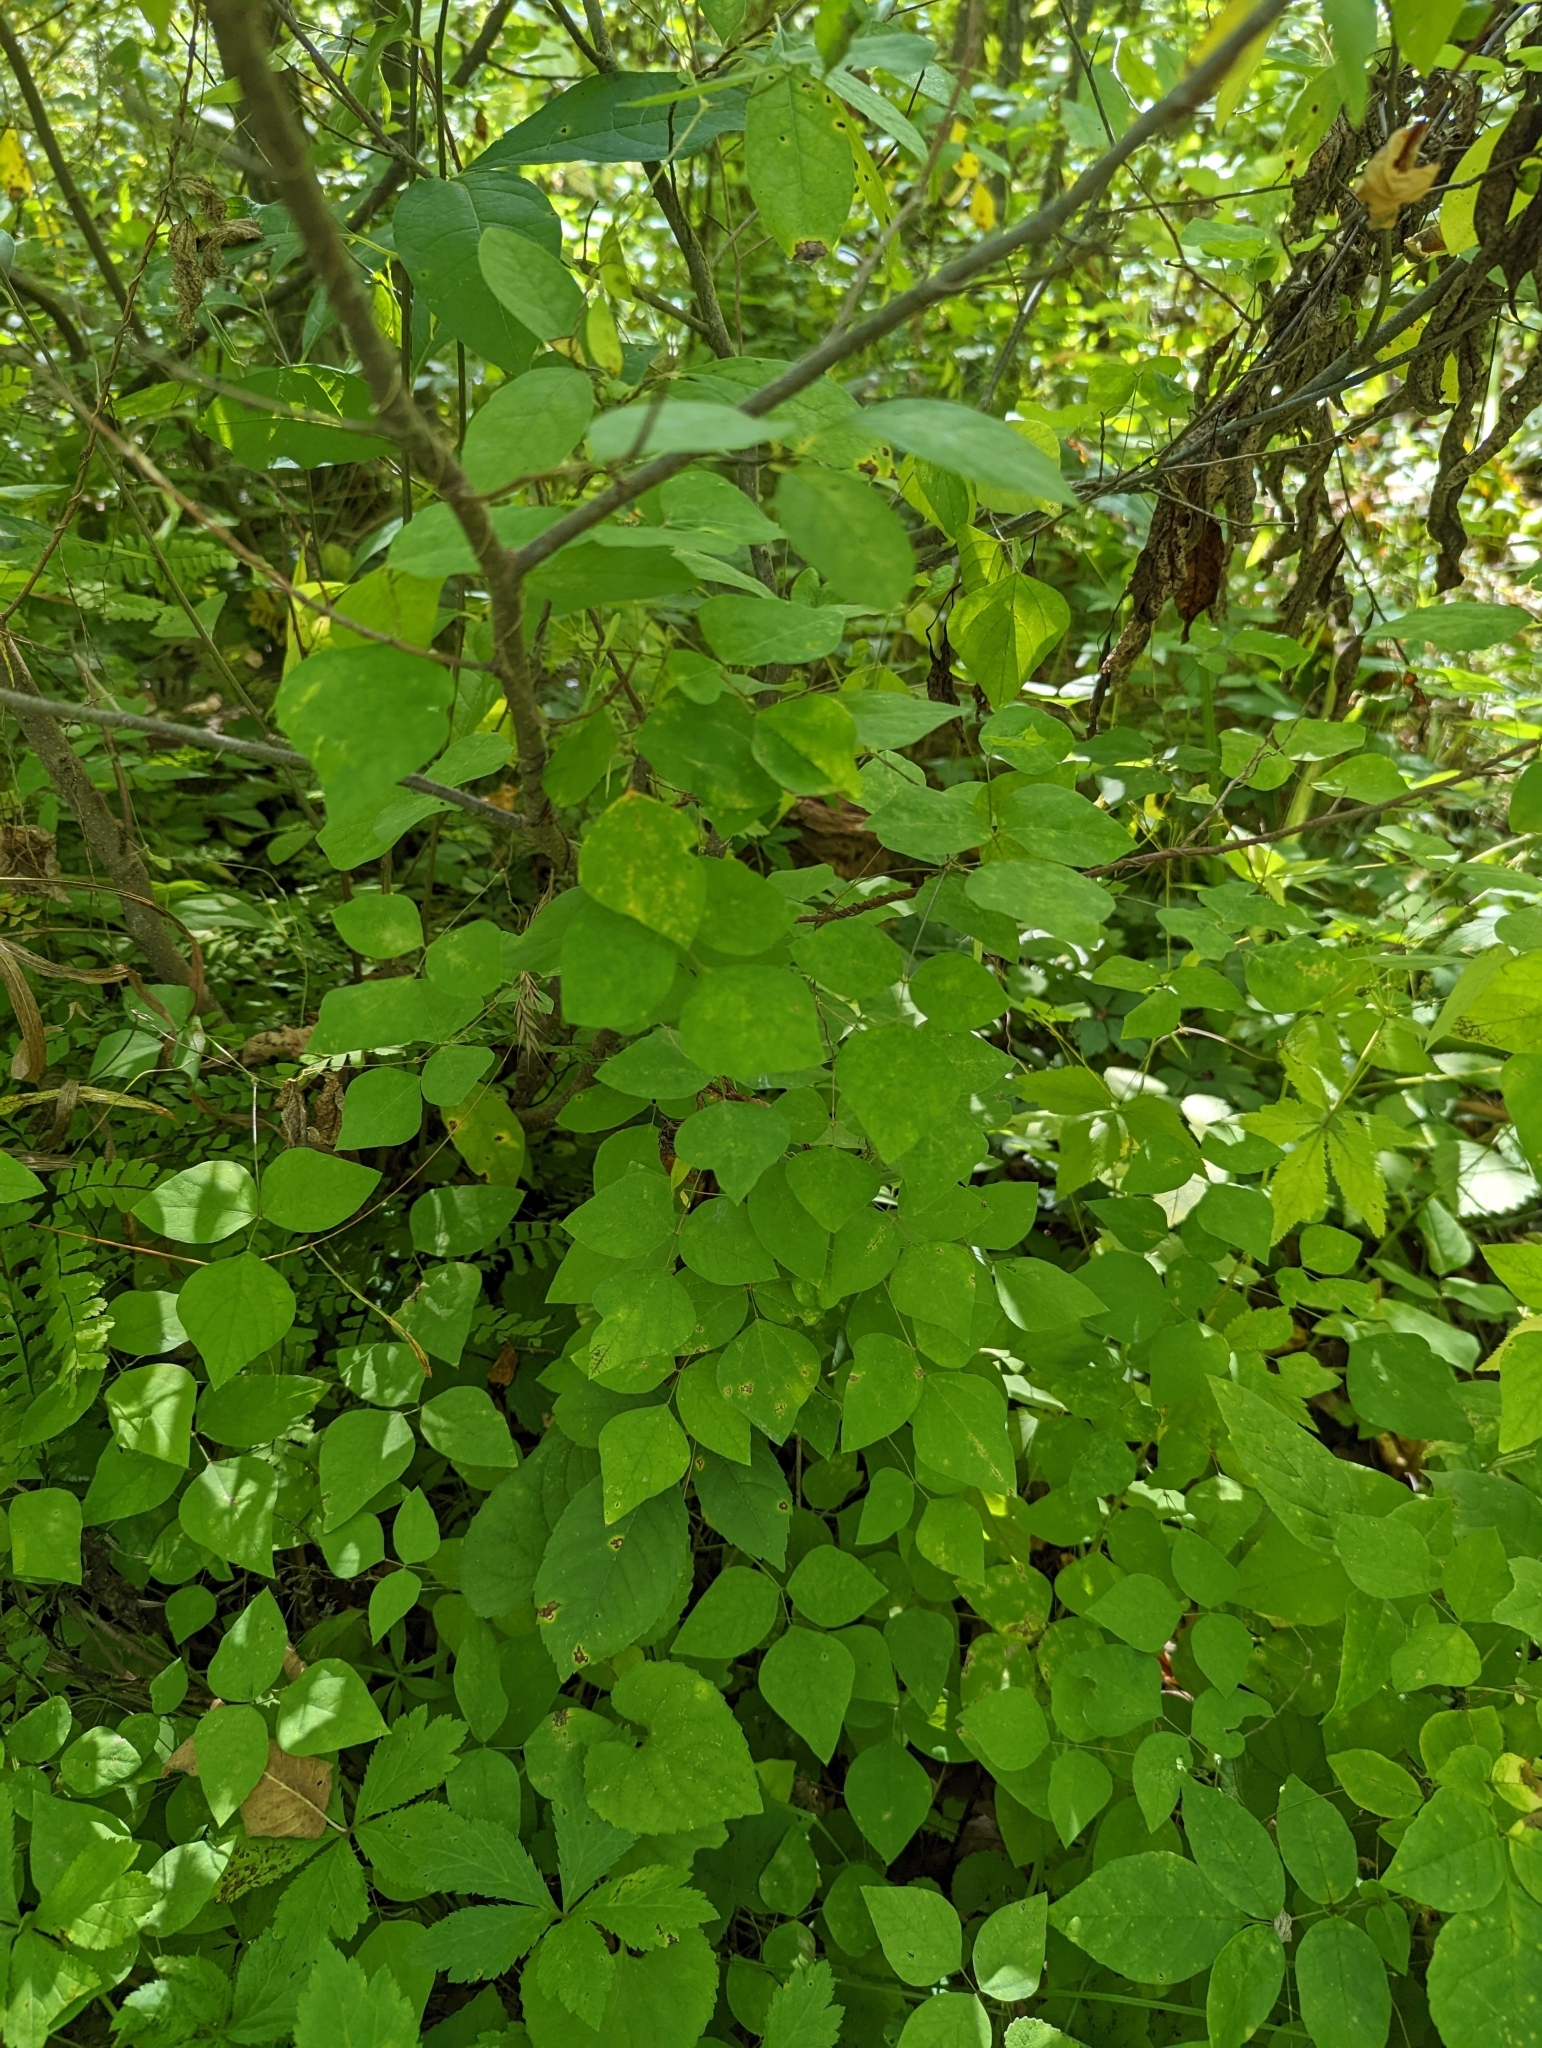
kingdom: Plantae
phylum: Tracheophyta
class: Magnoliopsida
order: Fabales
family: Fabaceae
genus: Amphicarpaea
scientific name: Amphicarpaea bracteata
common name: American hog peanut
